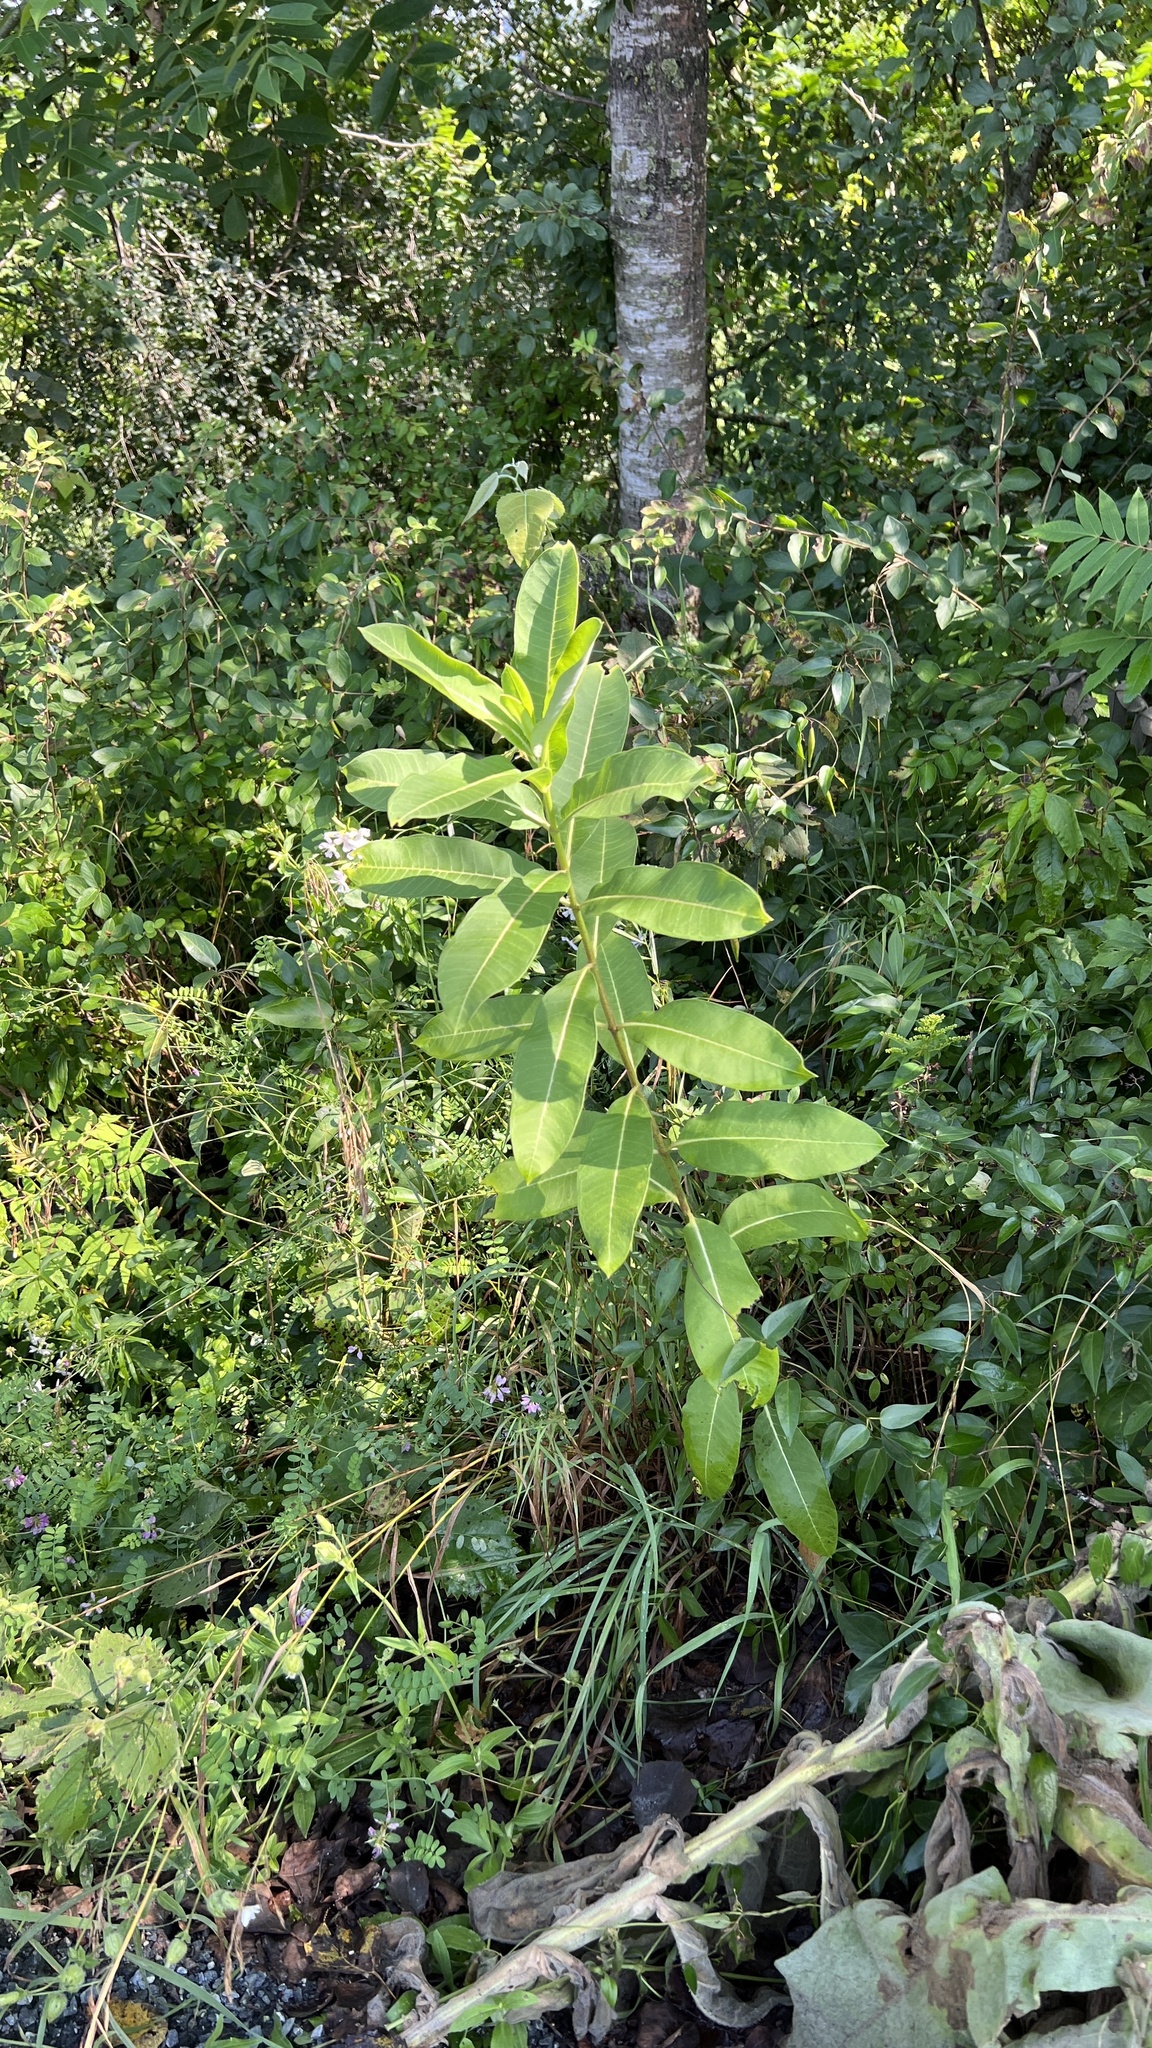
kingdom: Plantae
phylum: Tracheophyta
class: Magnoliopsida
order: Gentianales
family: Apocynaceae
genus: Asclepias
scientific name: Asclepias syriaca
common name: Common milkweed
